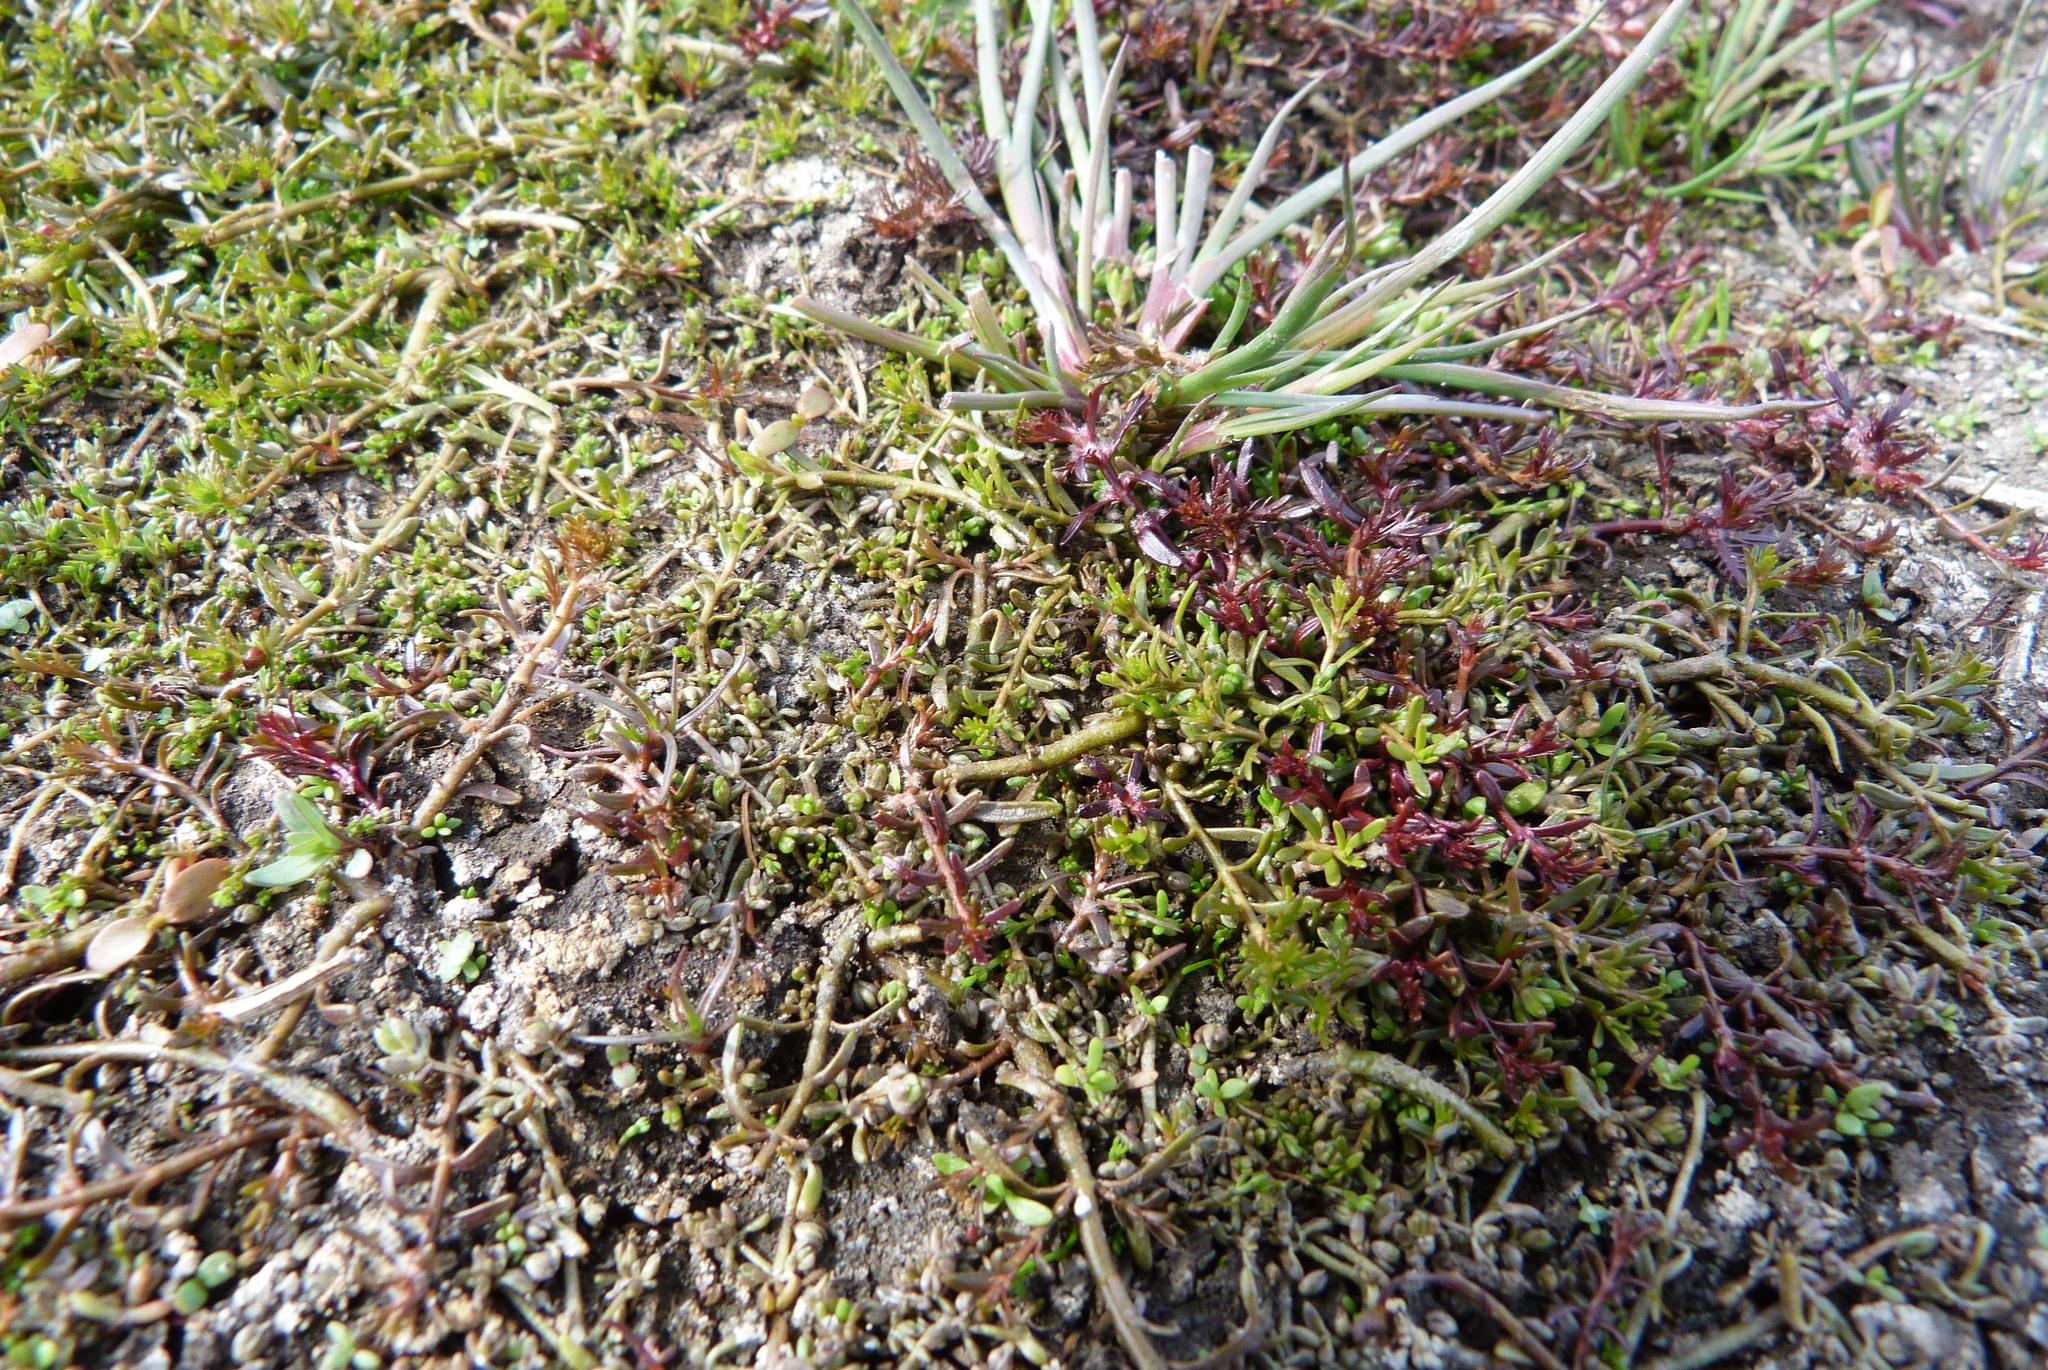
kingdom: Plantae
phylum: Tracheophyta
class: Magnoliopsida
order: Saxifragales
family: Haloragaceae
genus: Myriophyllum
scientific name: Myriophyllum propinquum
